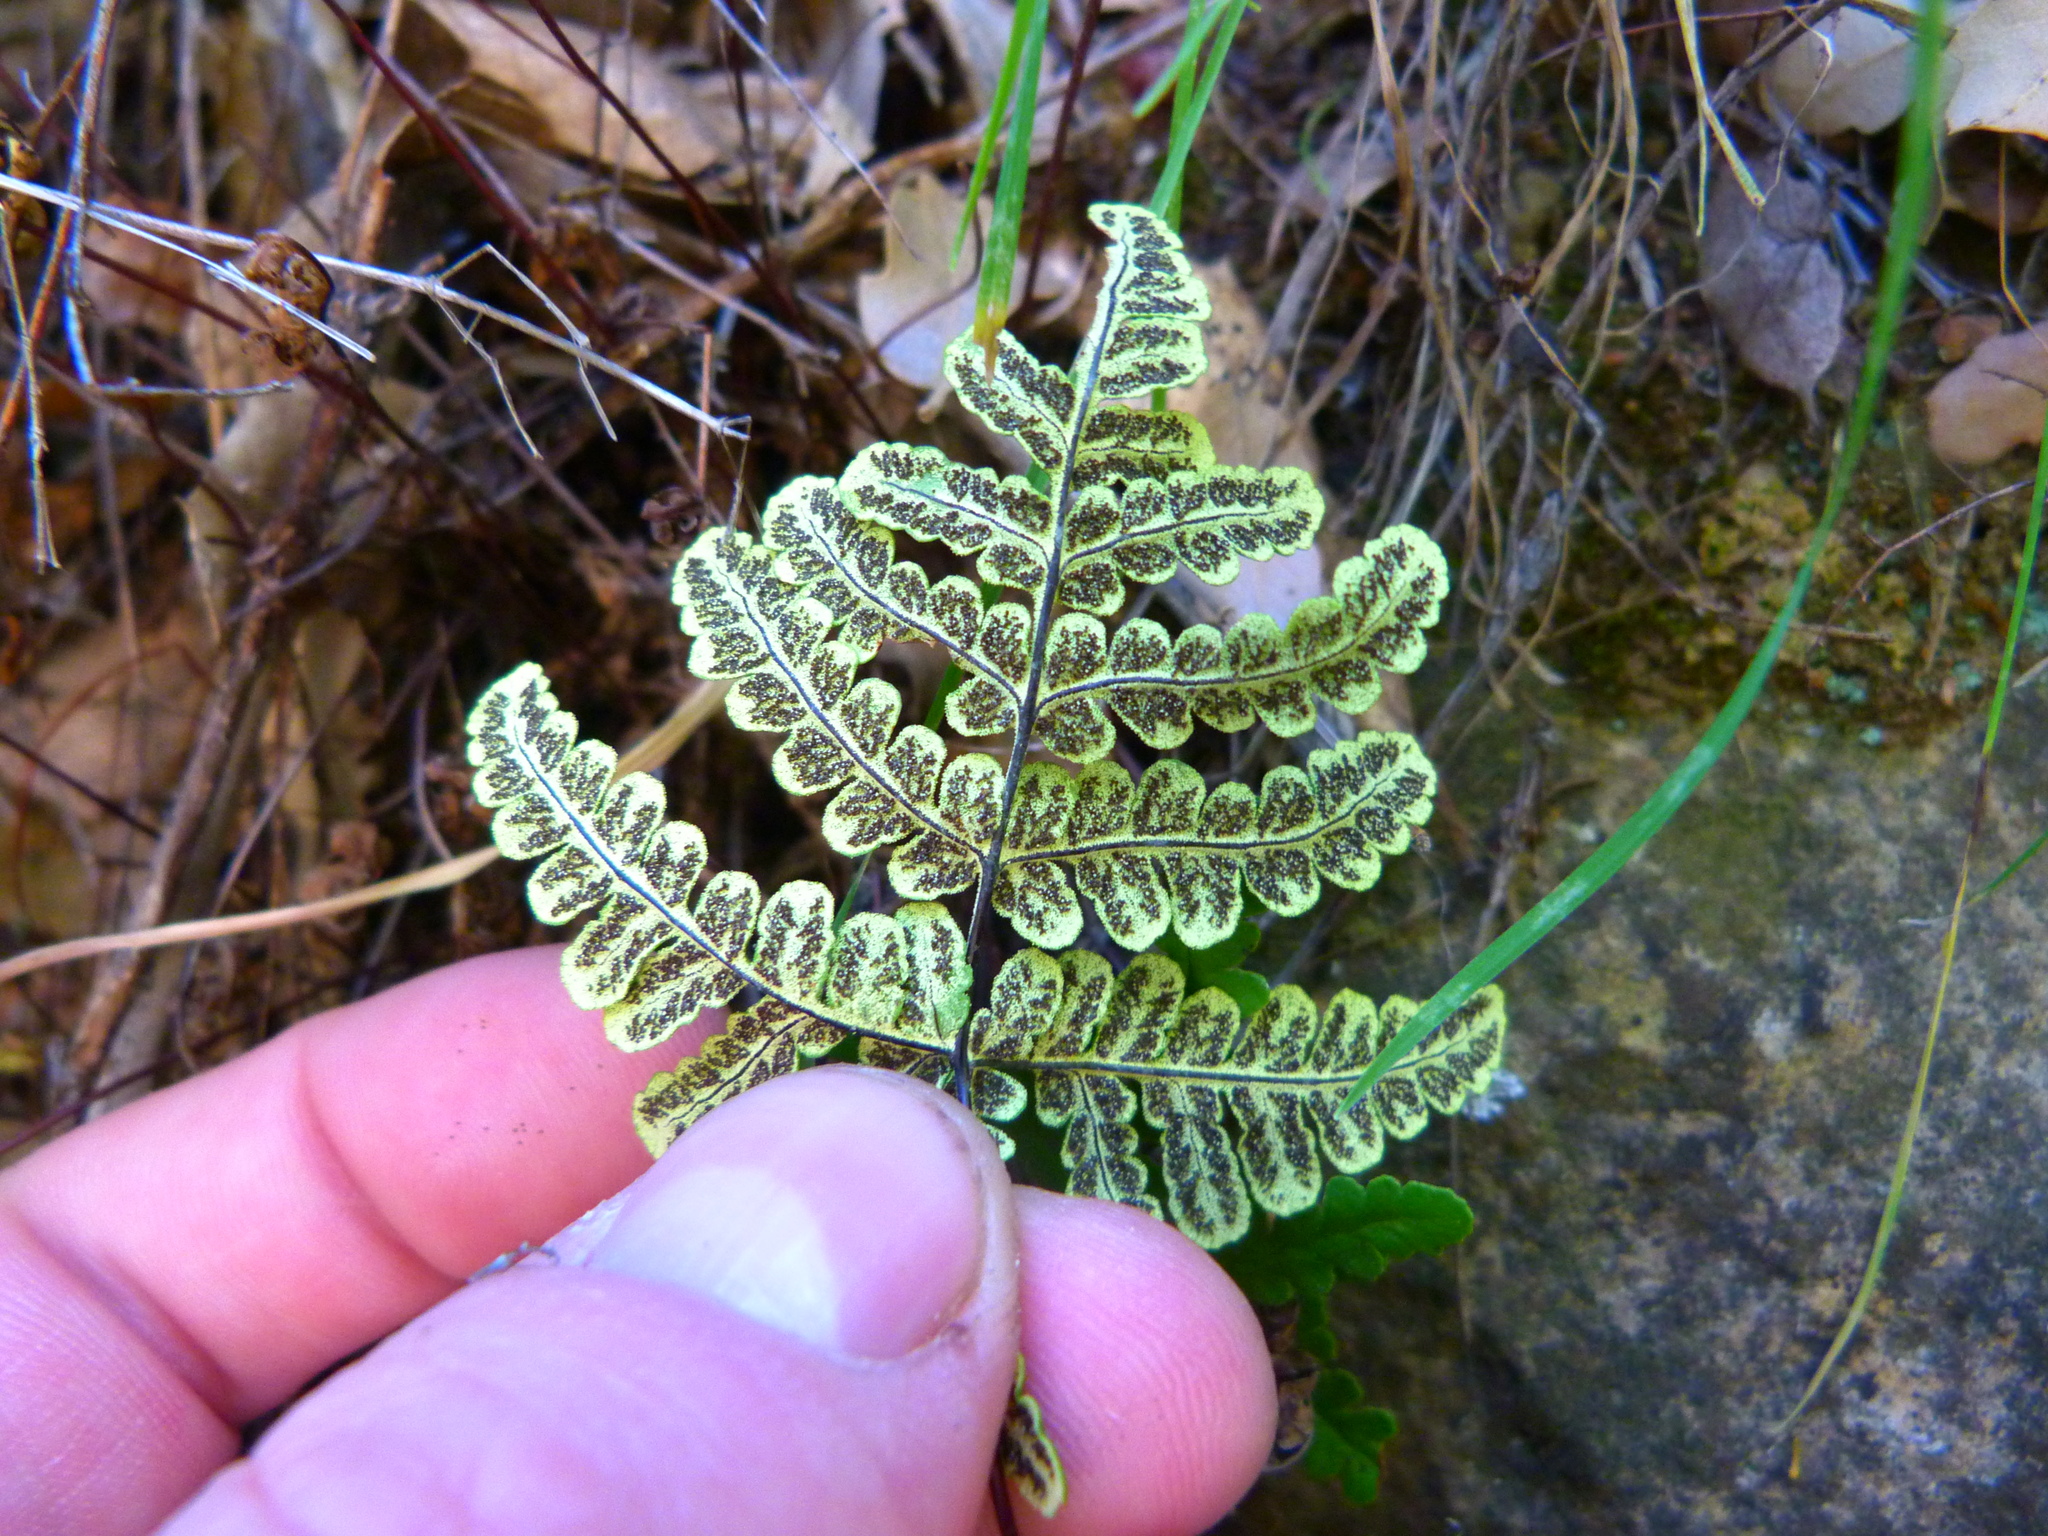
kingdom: Plantae
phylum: Tracheophyta
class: Polypodiopsida
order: Polypodiales
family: Pteridaceae
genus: Pentagramma
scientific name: Pentagramma triangularis
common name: Gold fern
